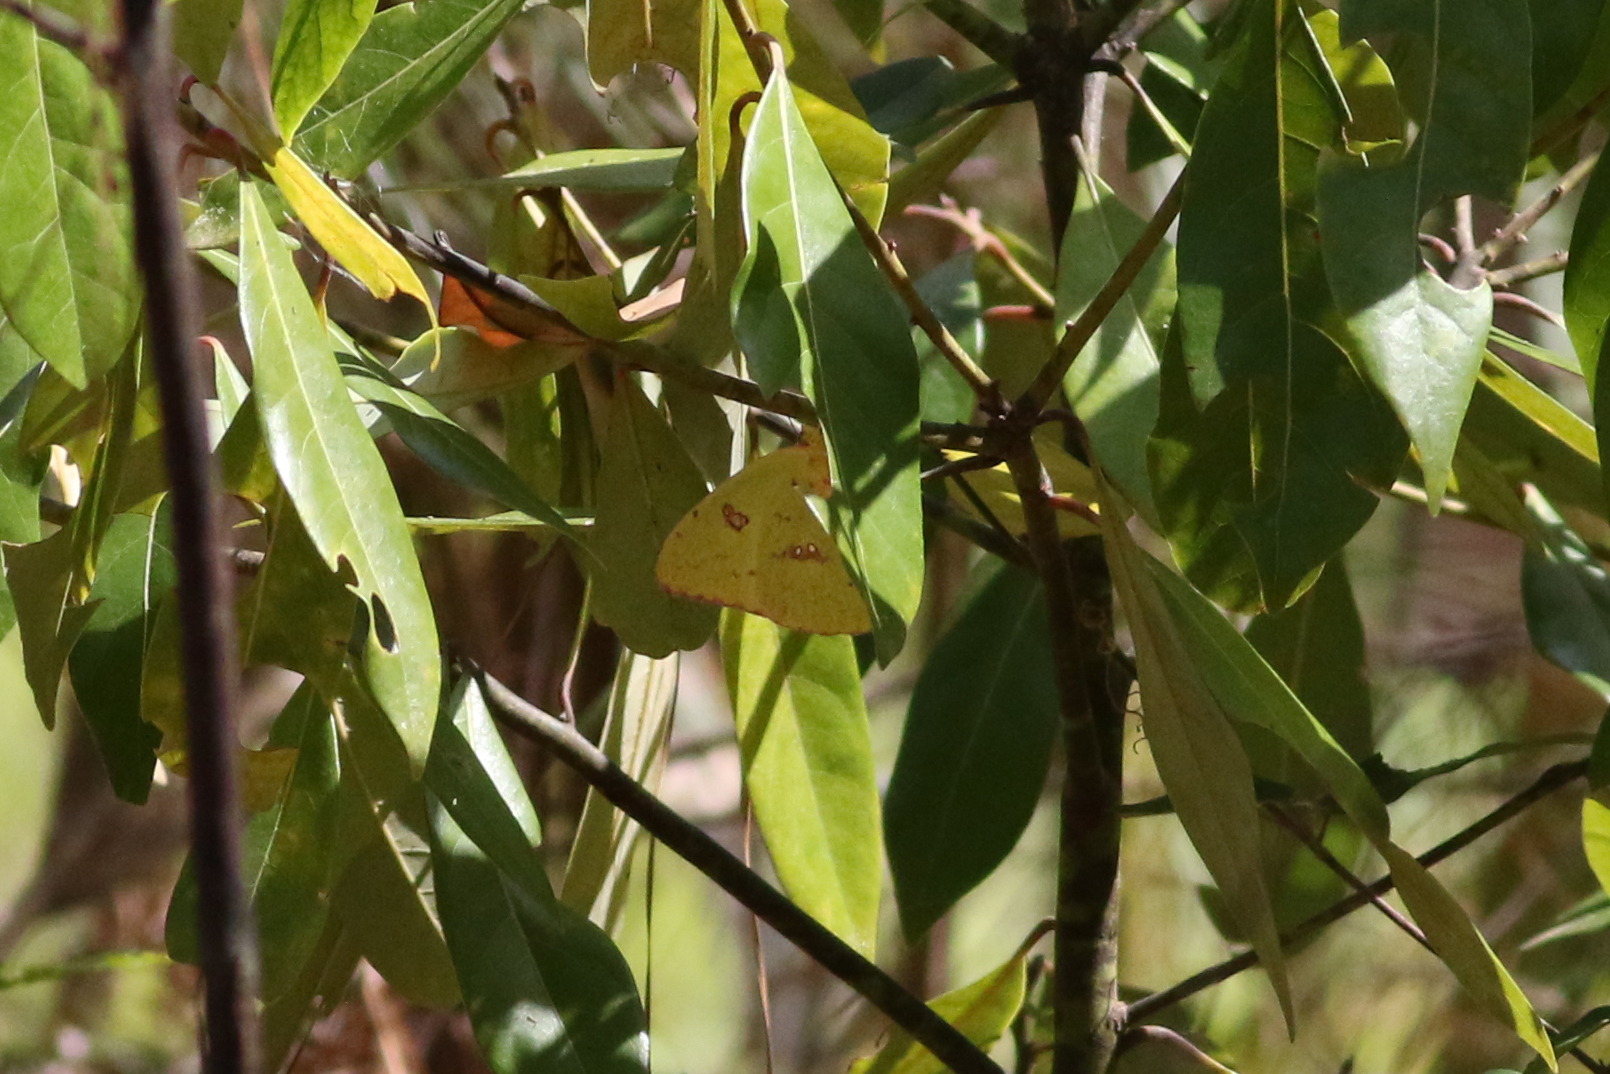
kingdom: Animalia
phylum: Arthropoda
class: Insecta
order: Lepidoptera
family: Pieridae
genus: Phoebis
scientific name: Phoebis sennae
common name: Cloudless sulphur
